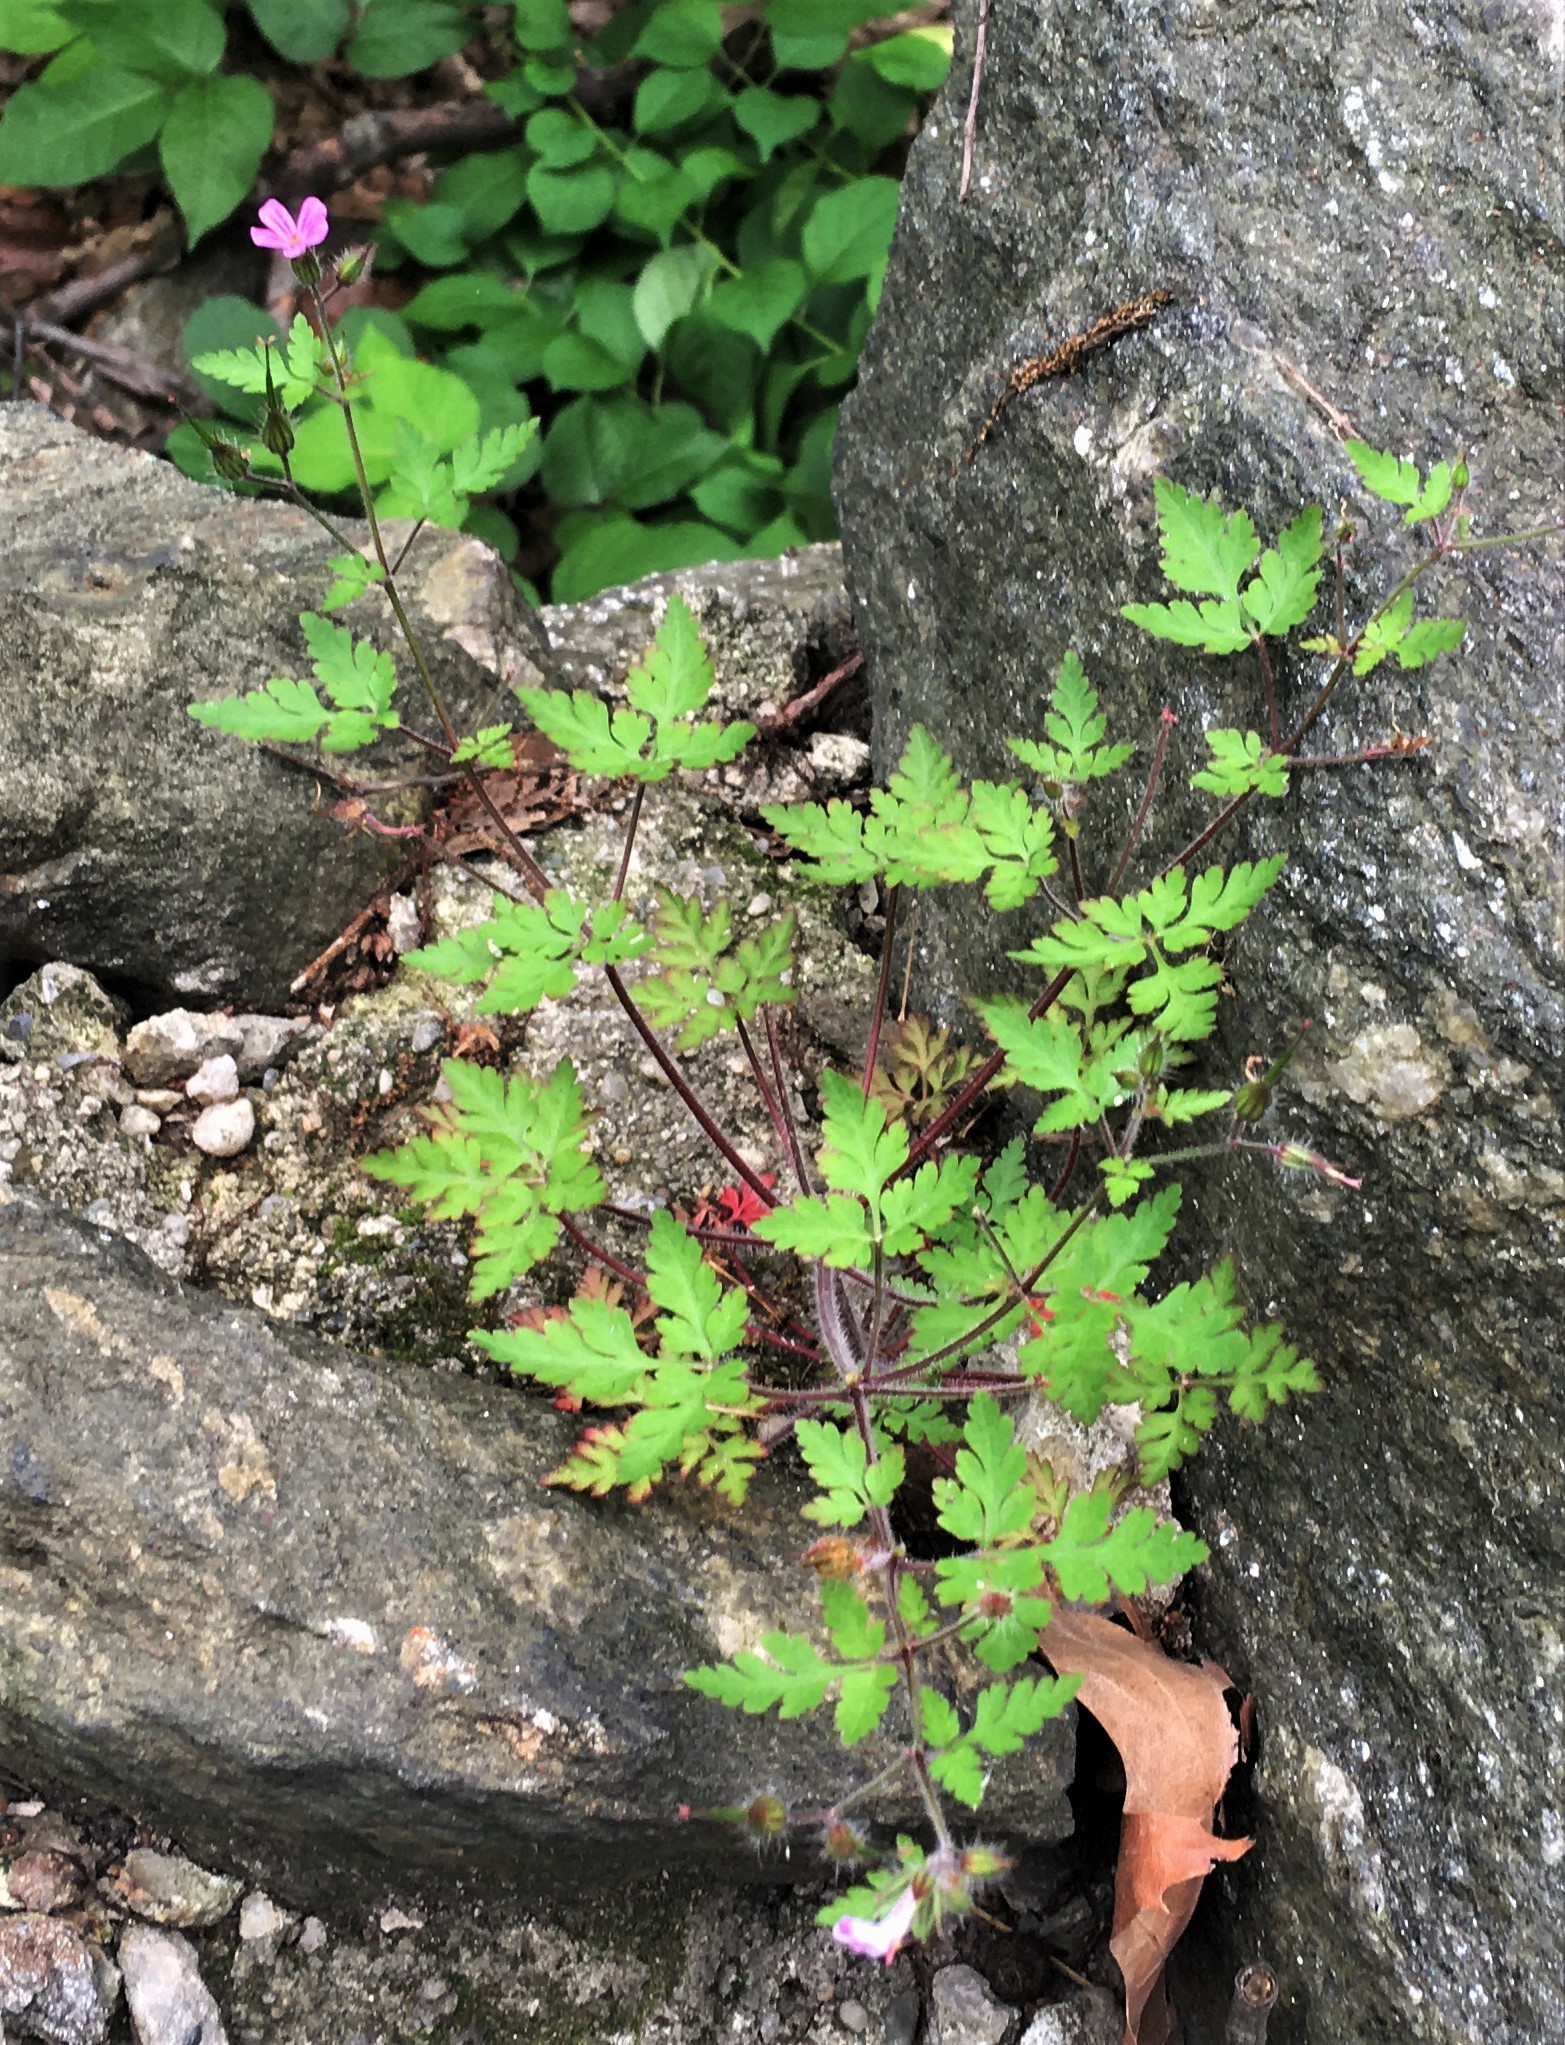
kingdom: Plantae
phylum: Tracheophyta
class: Magnoliopsida
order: Geraniales
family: Geraniaceae
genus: Geranium
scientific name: Geranium robertianum
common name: Herb-robert
